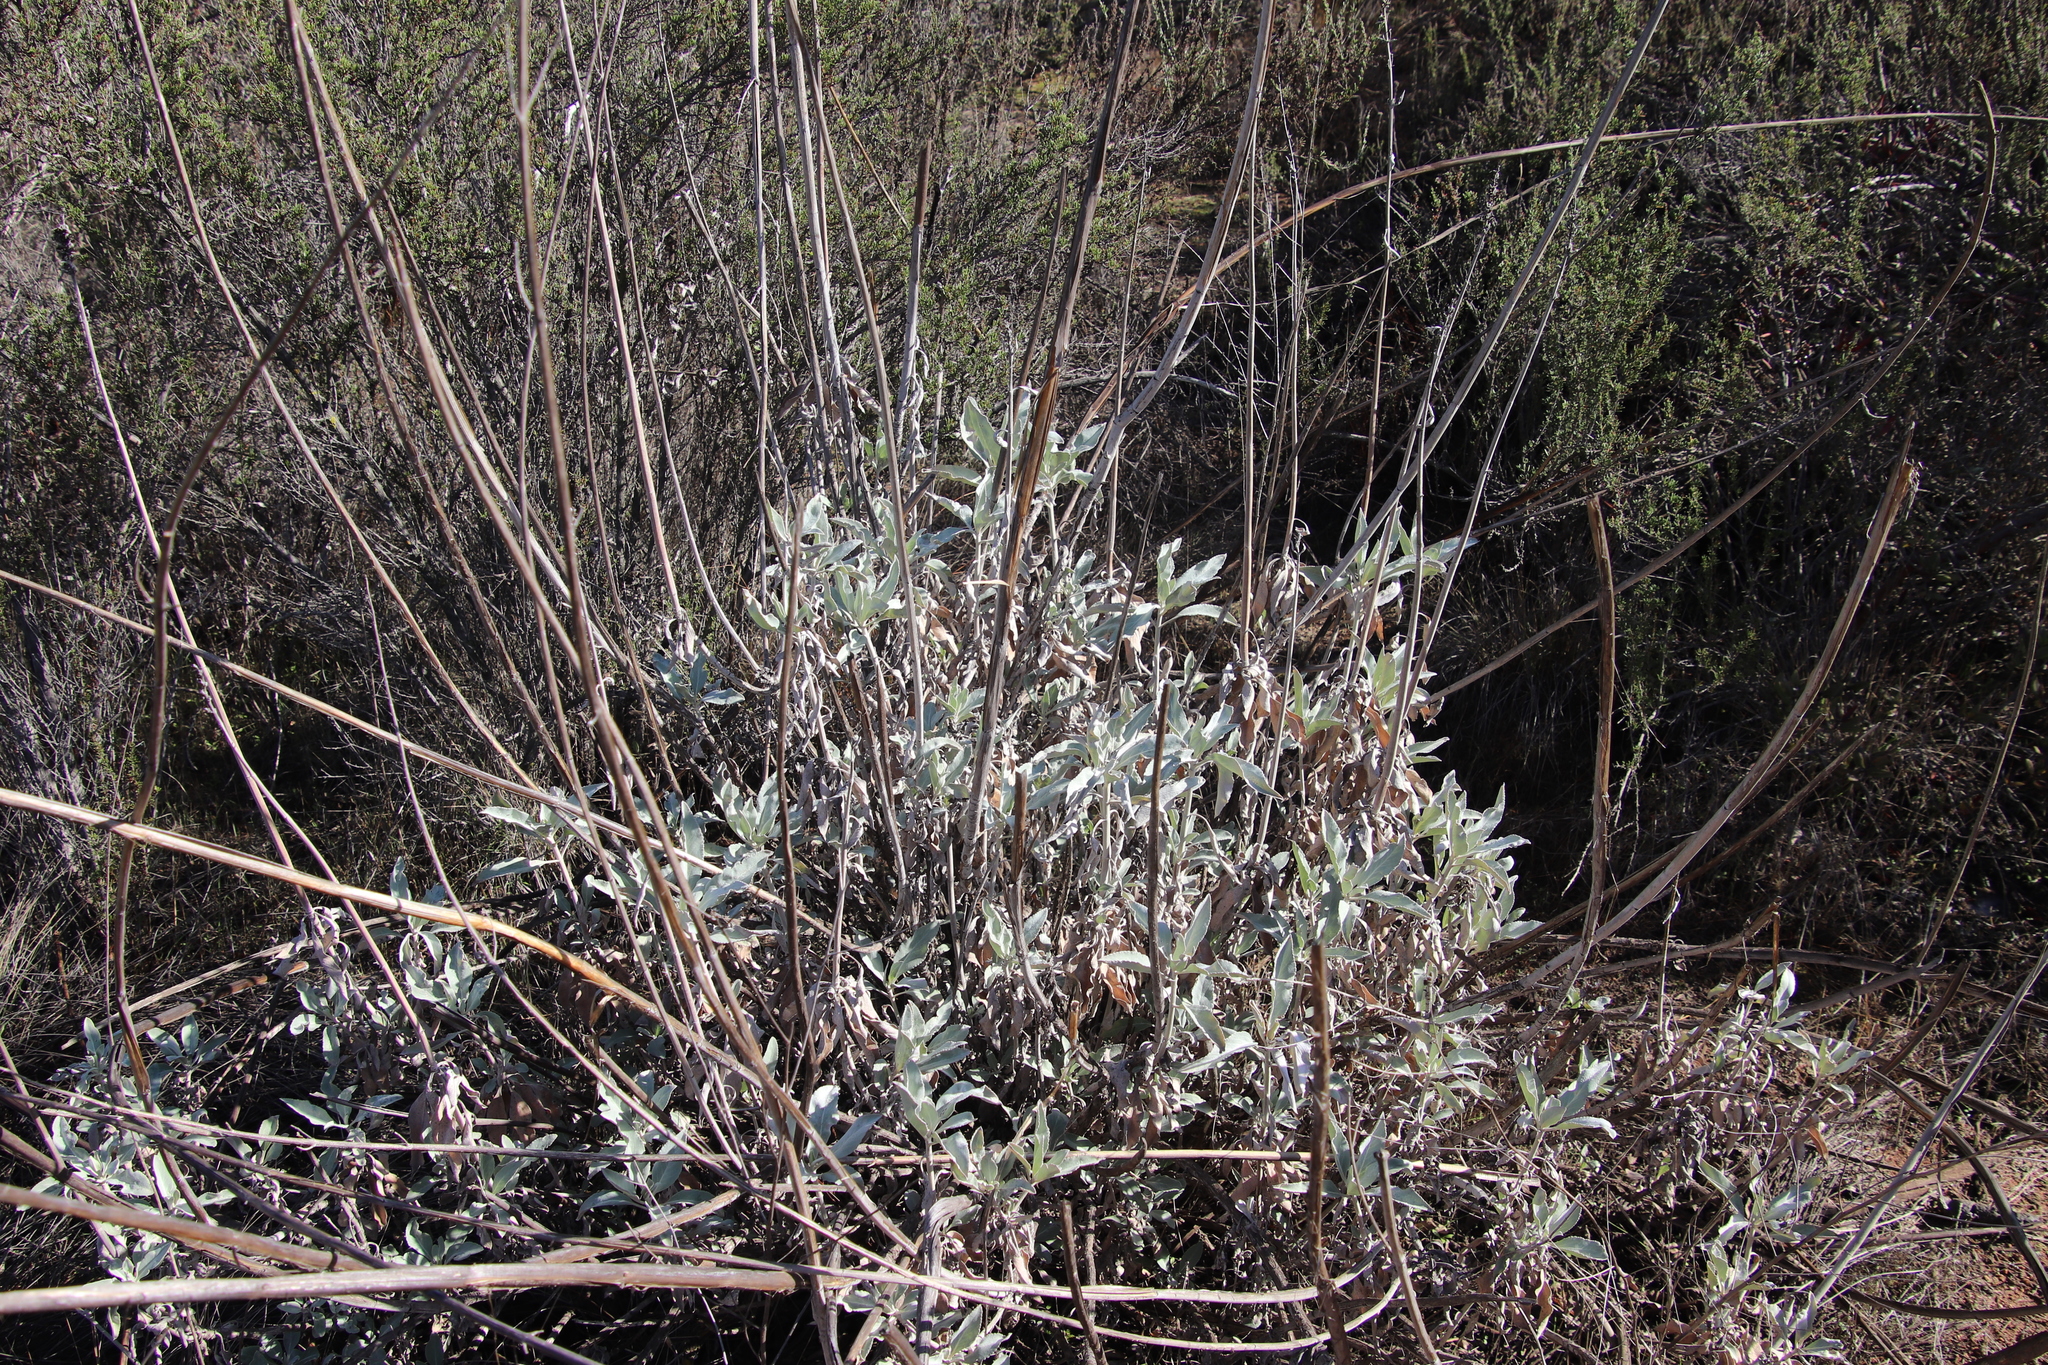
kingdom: Plantae
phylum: Tracheophyta
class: Magnoliopsida
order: Lamiales
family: Lamiaceae
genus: Salvia
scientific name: Salvia apiana
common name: White sage
